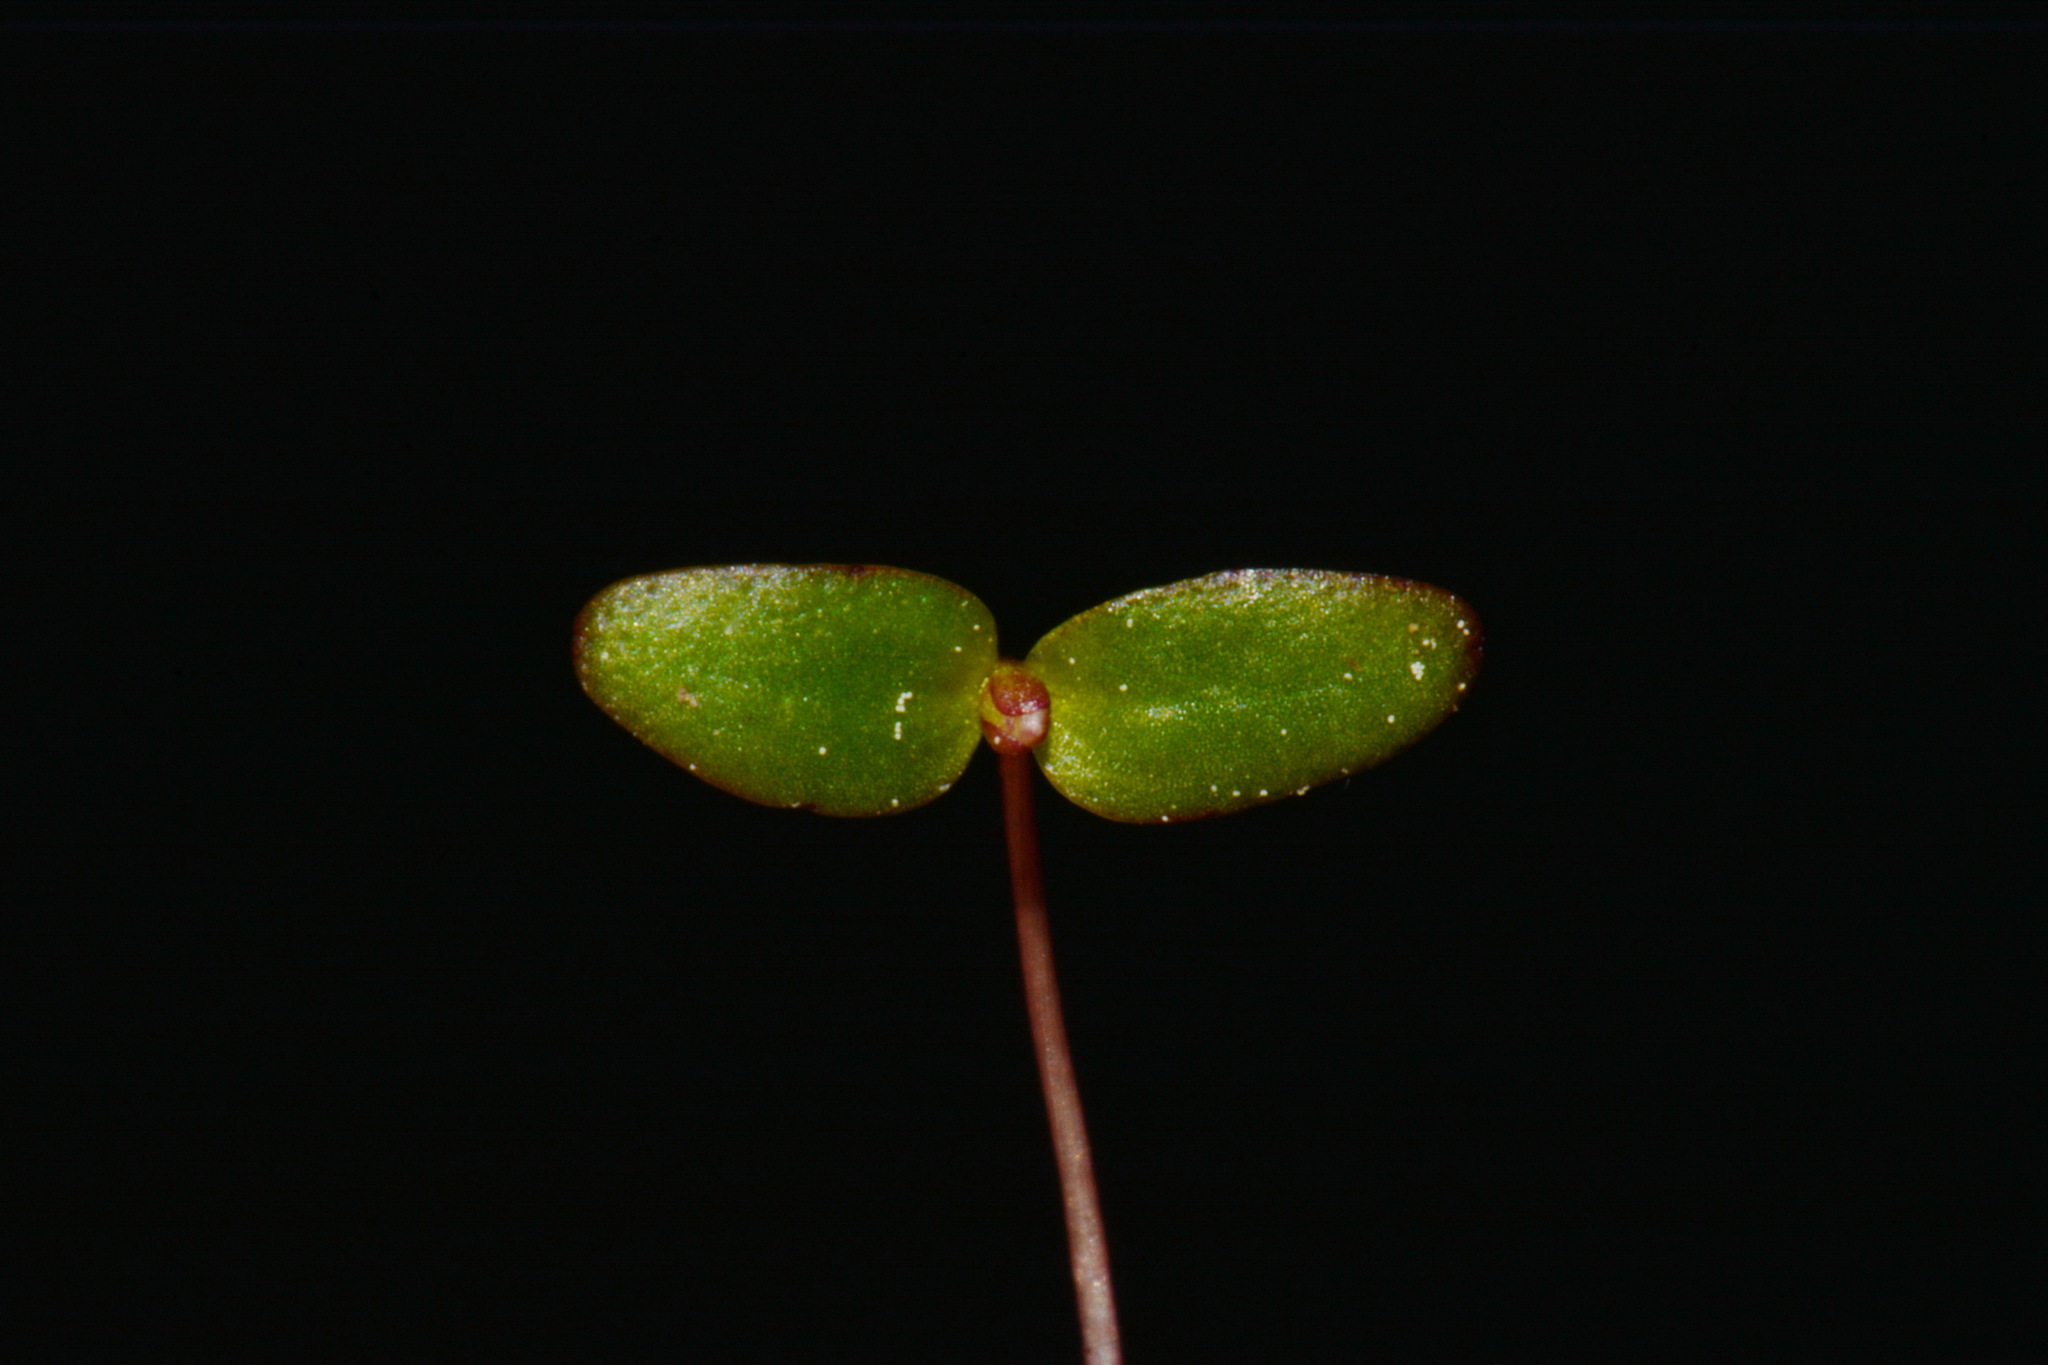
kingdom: Plantae
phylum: Tracheophyta
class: Magnoliopsida
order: Lamiales
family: Plantaginaceae
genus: Gratiola
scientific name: Gratiola amphiantha
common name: Little amphianthus
